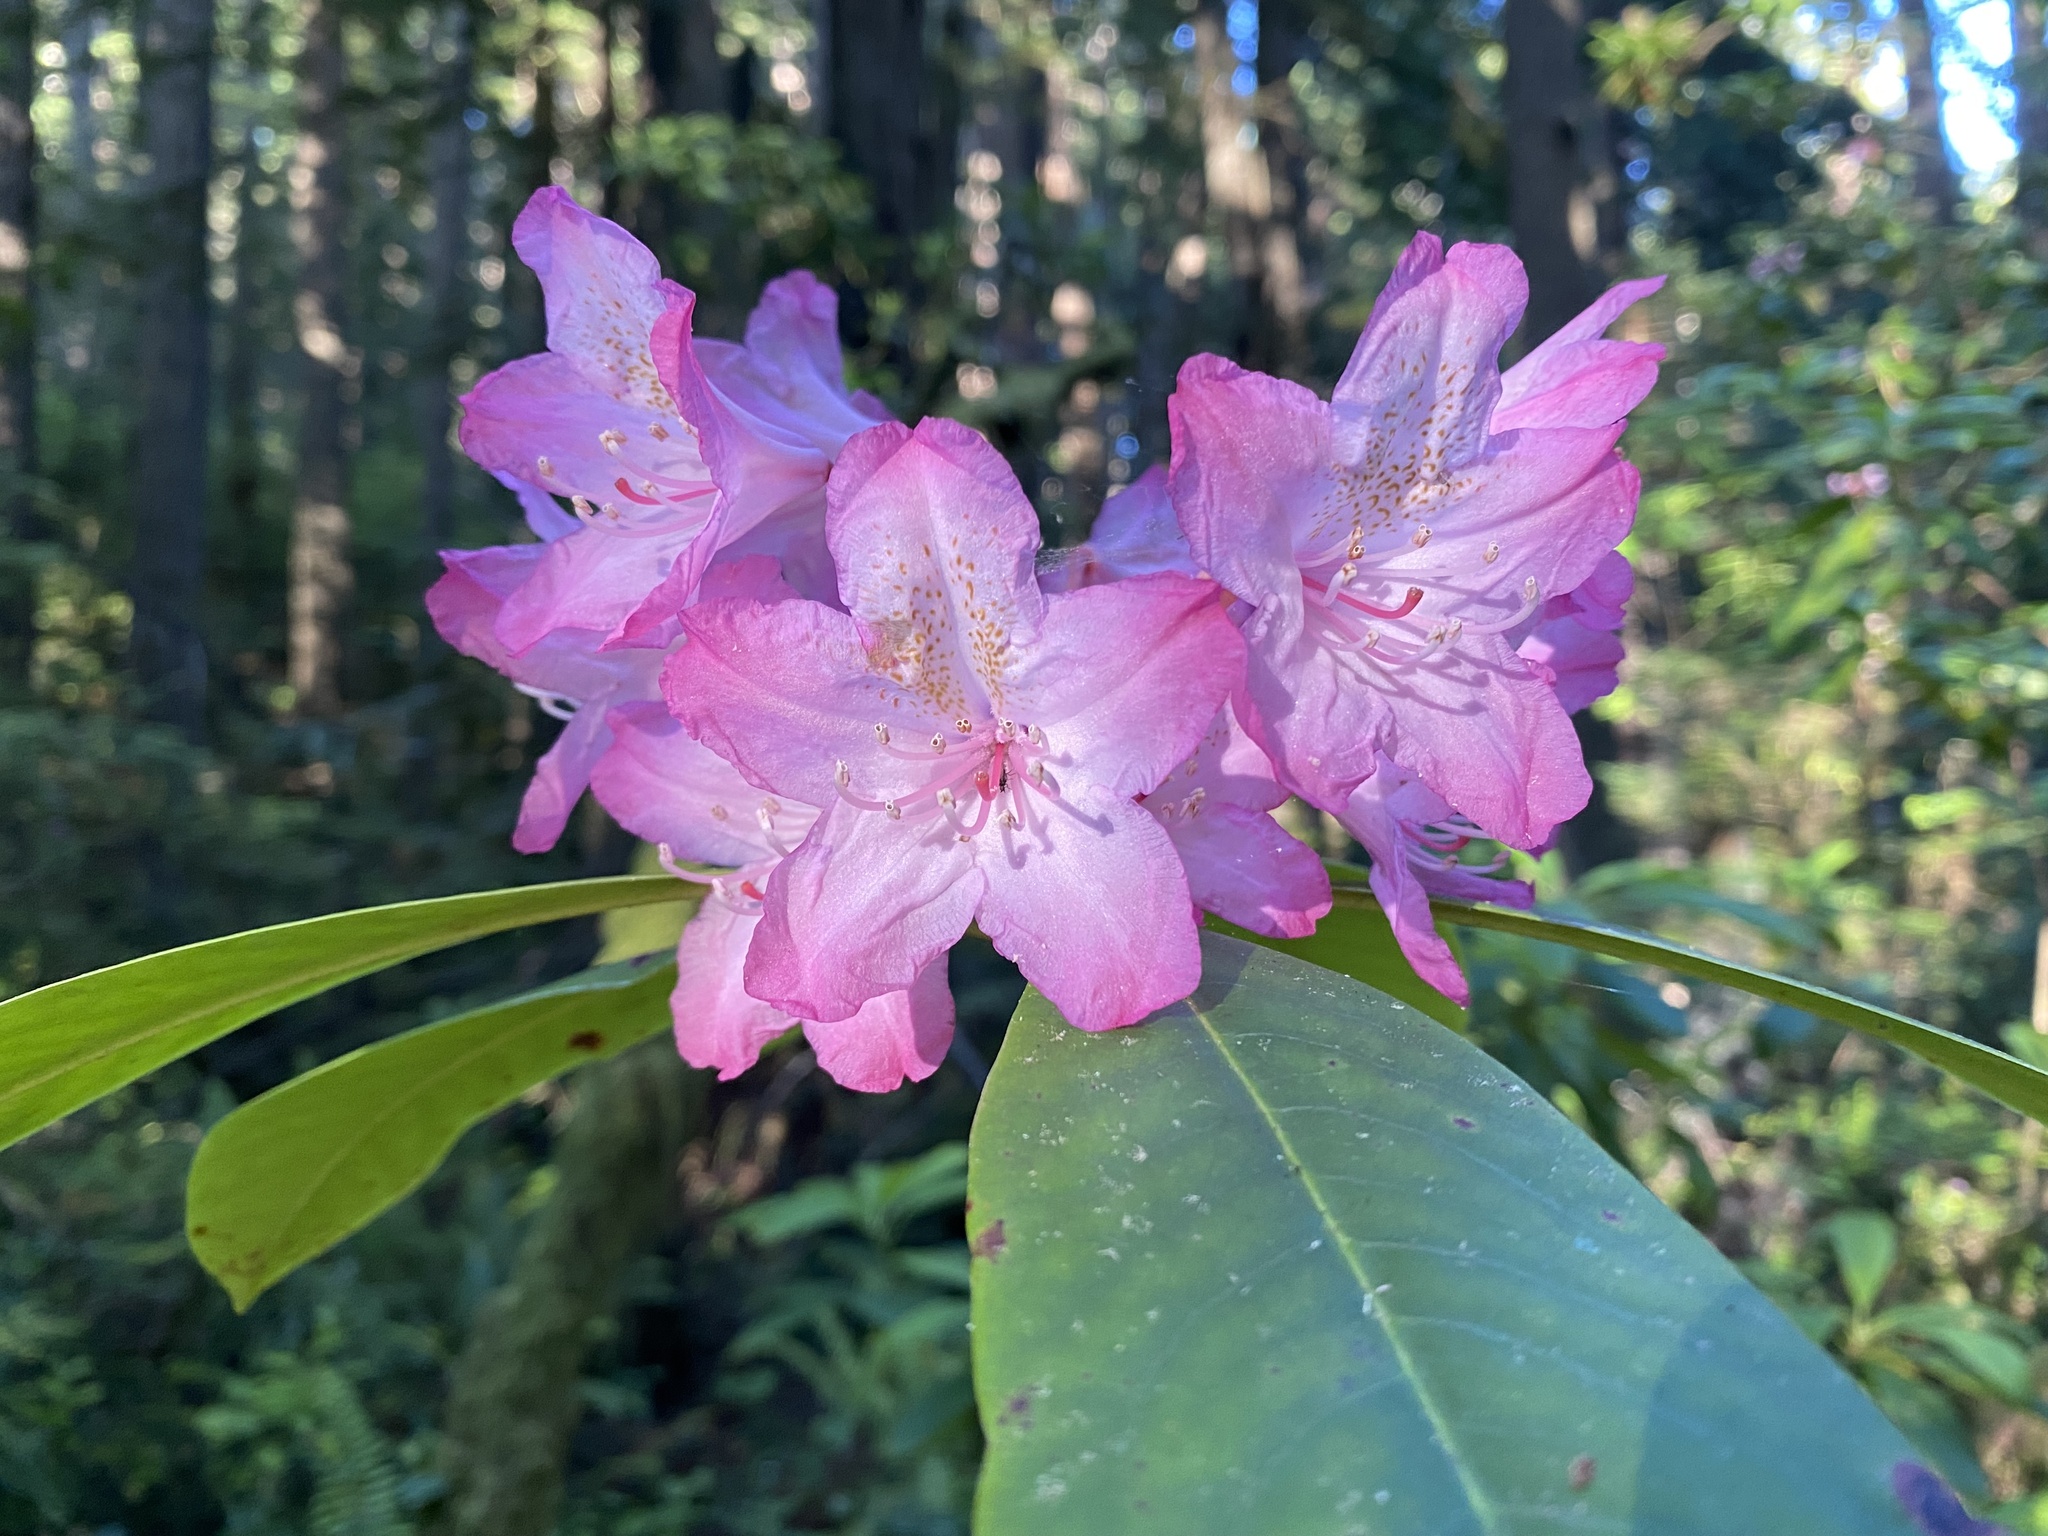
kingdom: Plantae
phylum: Tracheophyta
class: Magnoliopsida
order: Ericales
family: Ericaceae
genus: Rhododendron
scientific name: Rhododendron macrophyllum
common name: California rose bay
